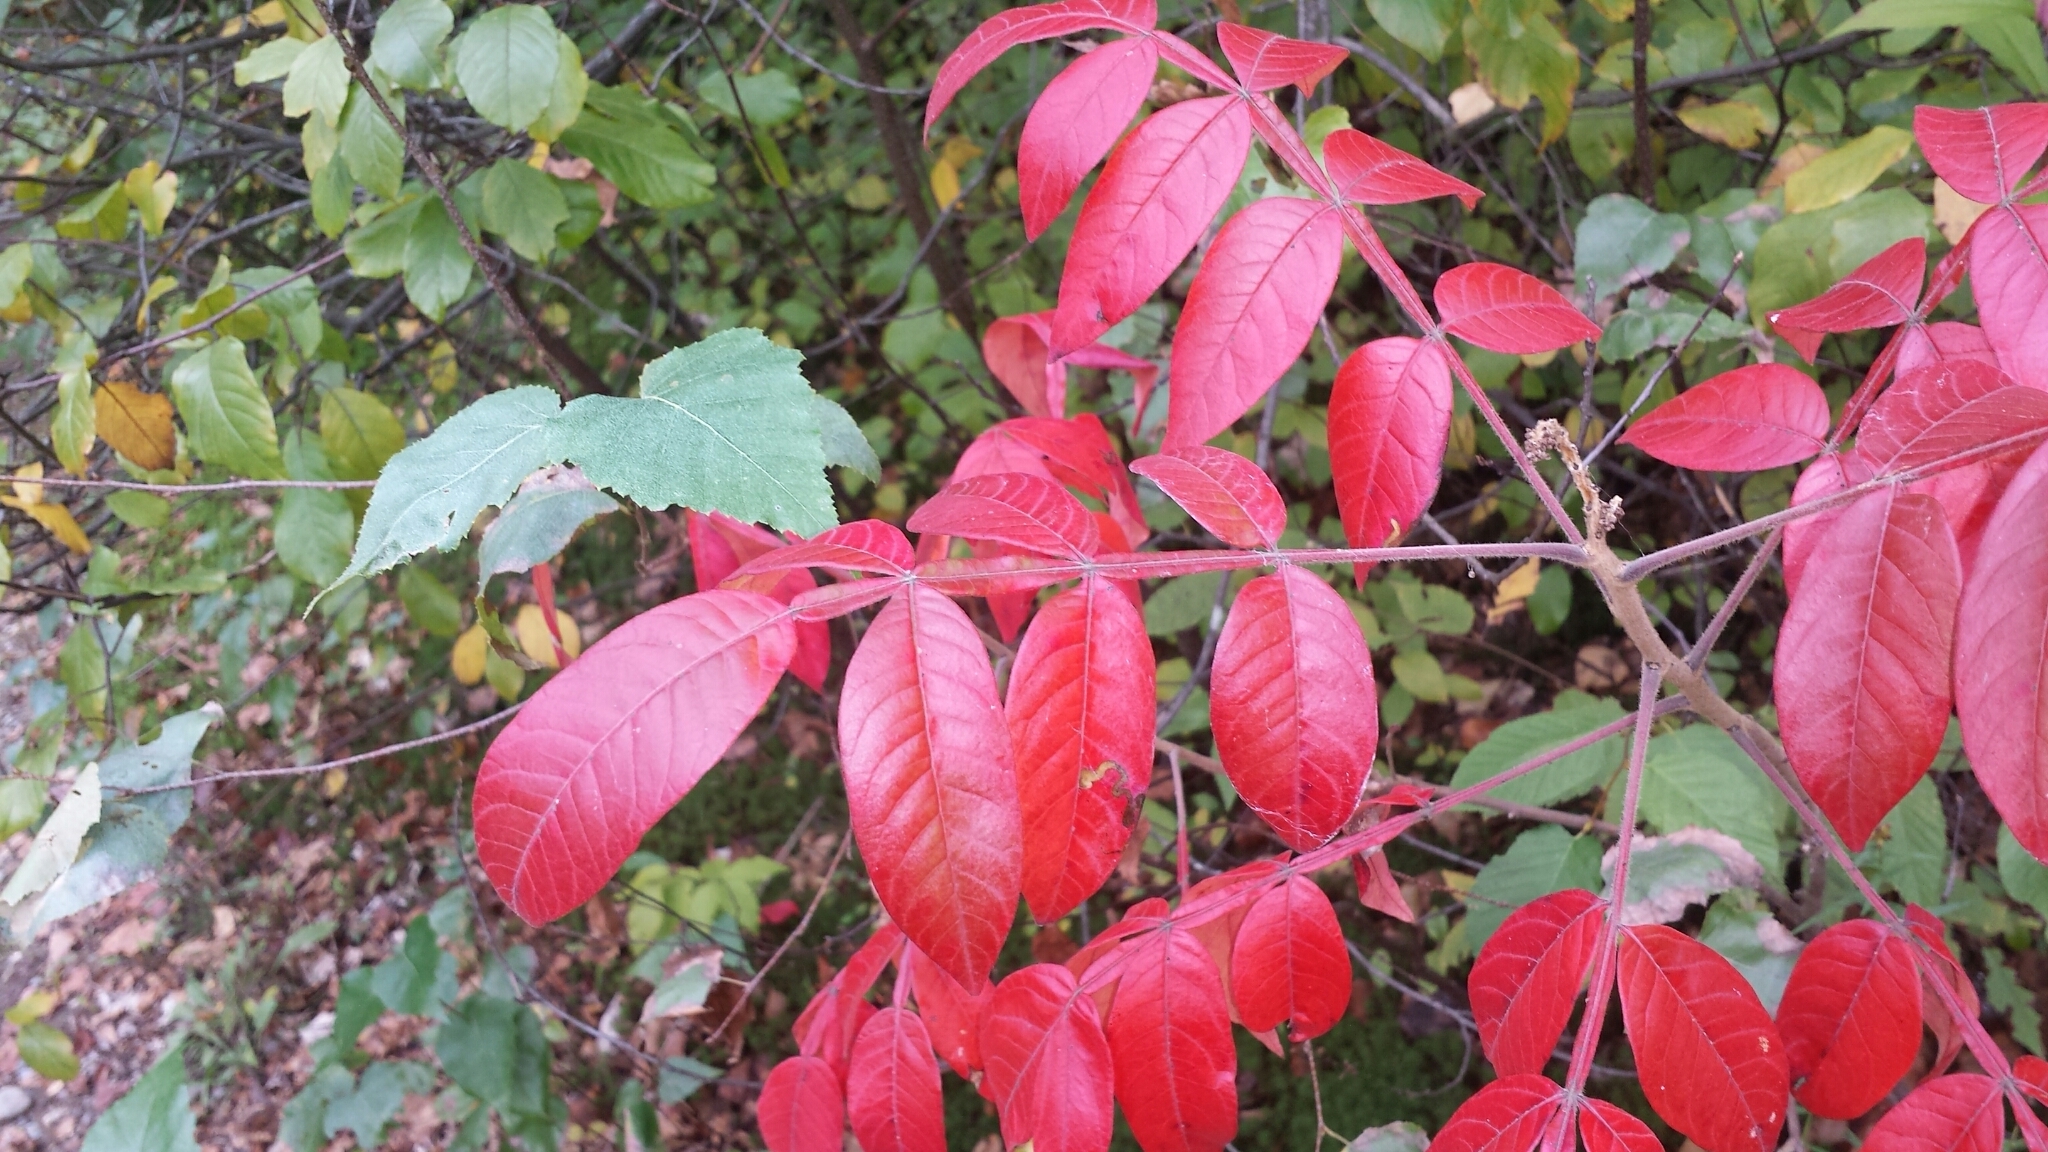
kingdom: Plantae
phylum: Tracheophyta
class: Magnoliopsida
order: Sapindales
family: Anacardiaceae
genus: Rhus
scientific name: Rhus copallina
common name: Shining sumac
